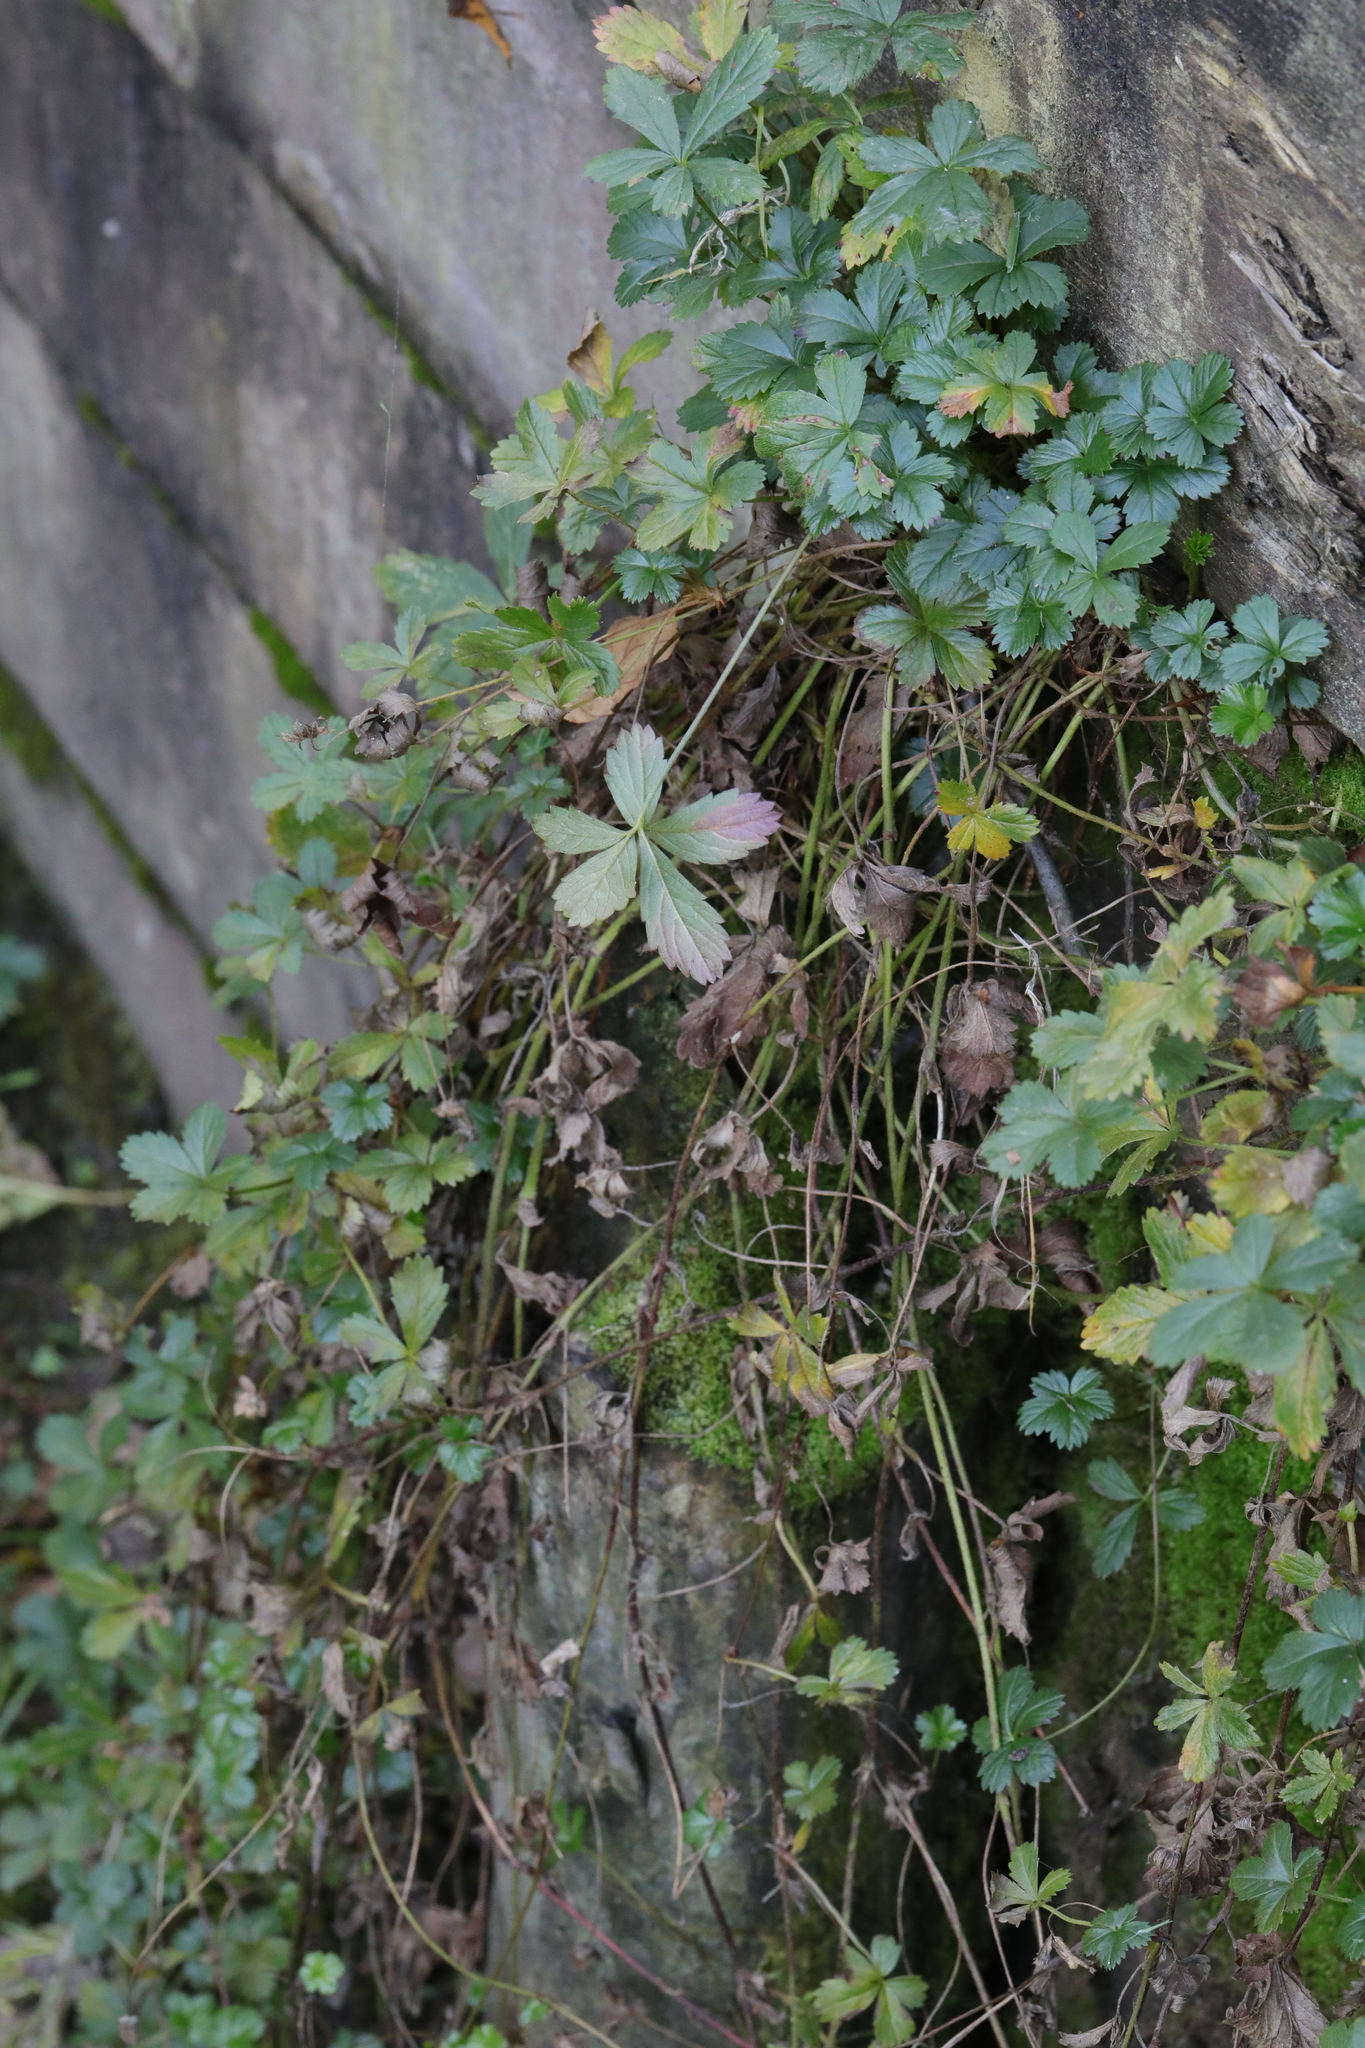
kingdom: Plantae
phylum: Tracheophyta
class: Magnoliopsida
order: Rosales
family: Rosaceae
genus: Potentilla
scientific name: Potentilla reptans
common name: Creeping cinquefoil
